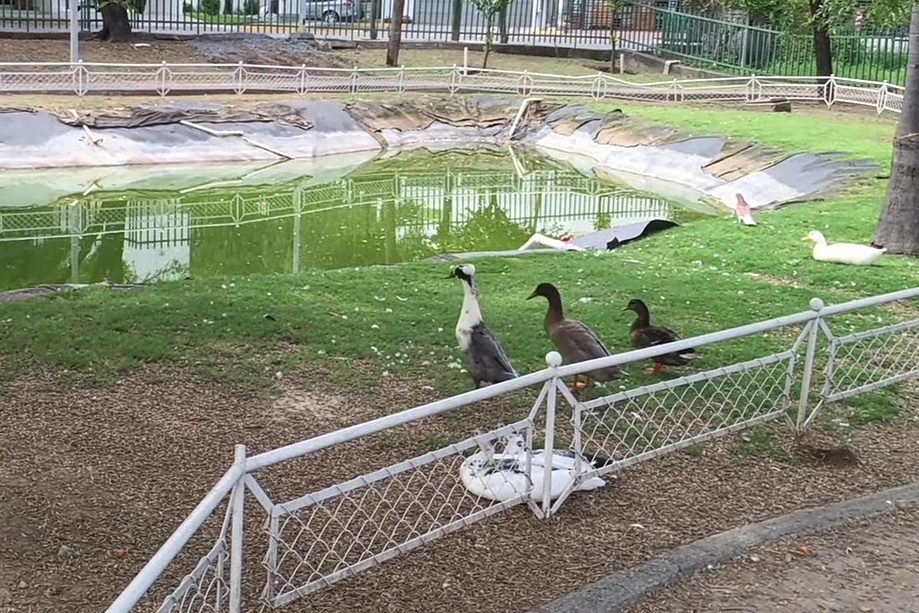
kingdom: Animalia
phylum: Chordata
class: Aves
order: Anseriformes
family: Anatidae
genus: Anas
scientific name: Anas platyrhynchos
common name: Mallard
